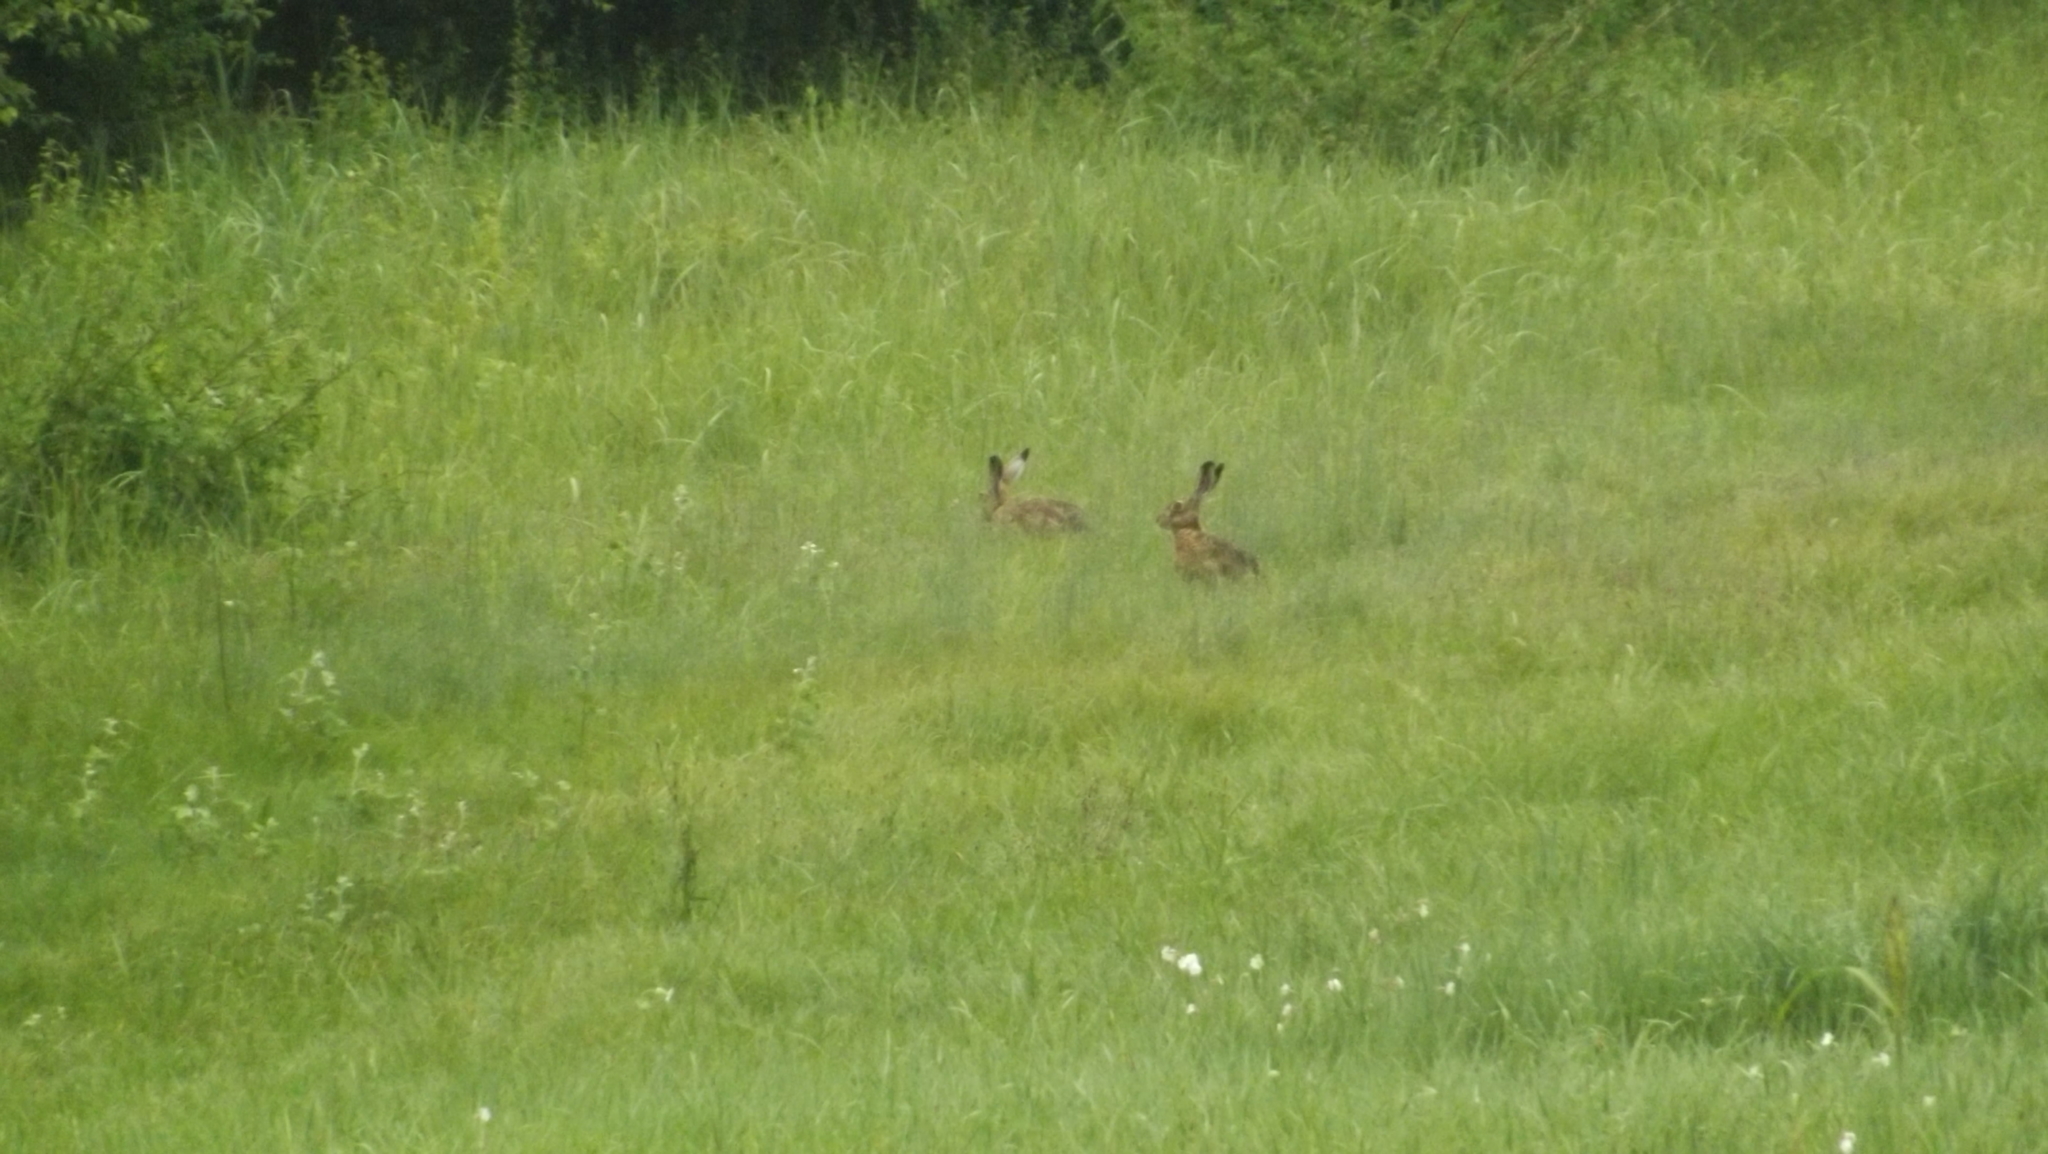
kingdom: Animalia
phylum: Chordata
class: Mammalia
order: Lagomorpha
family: Leporidae
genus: Lepus
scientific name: Lepus europaeus
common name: European hare
